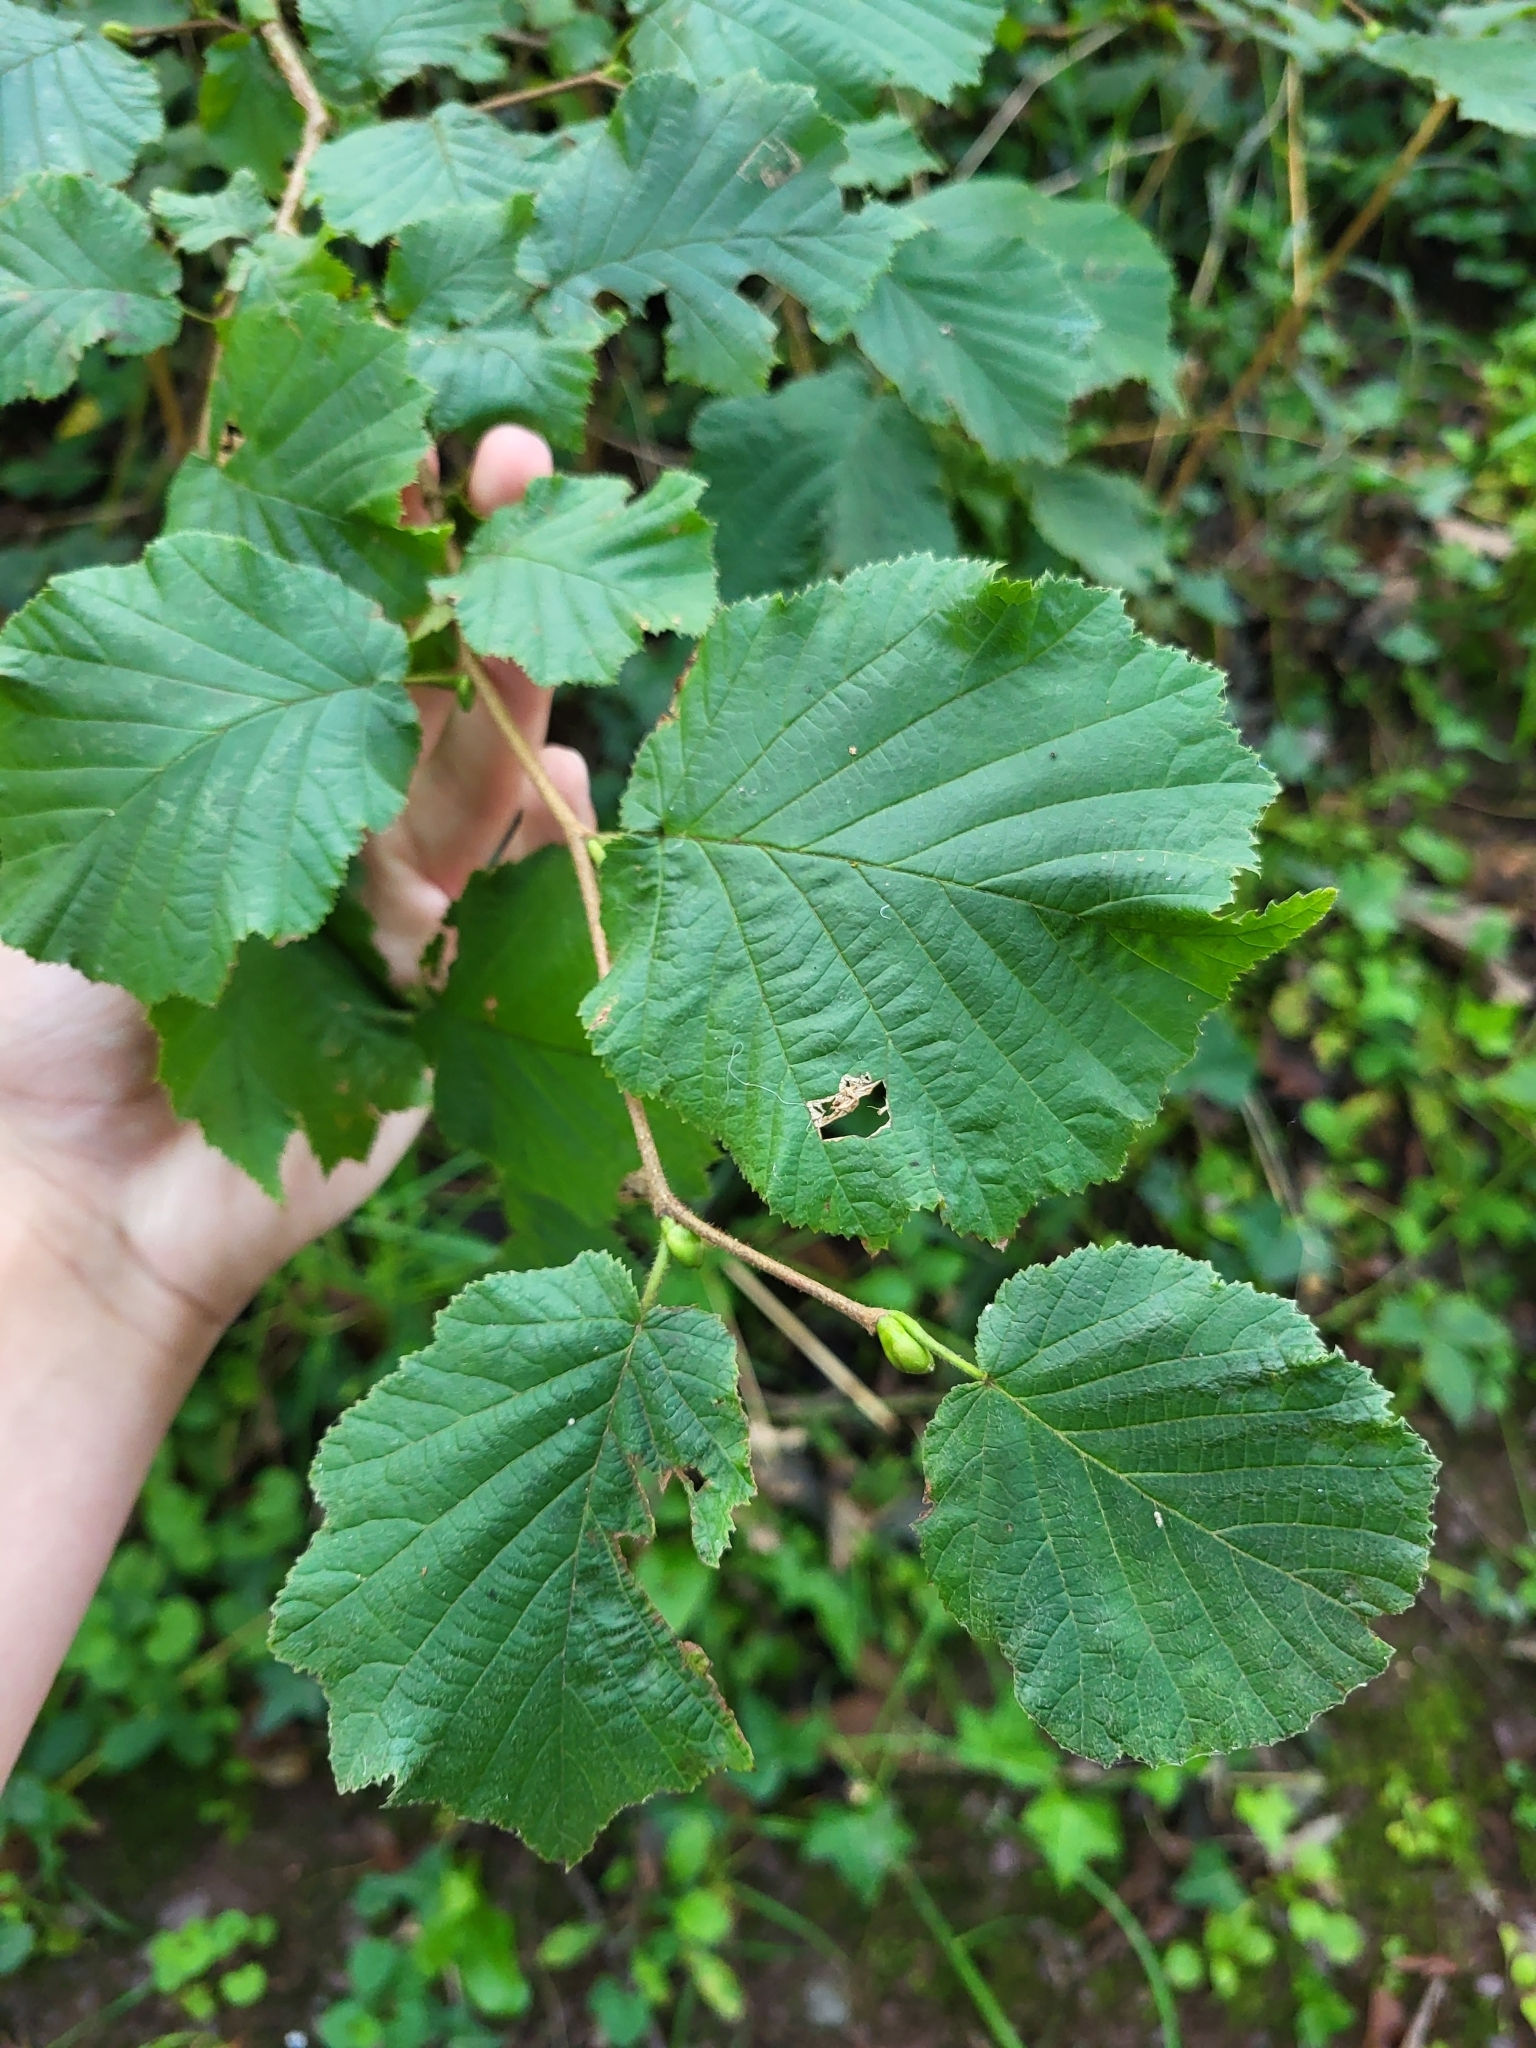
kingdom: Plantae
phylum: Tracheophyta
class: Magnoliopsida
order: Fagales
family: Betulaceae
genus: Corylus
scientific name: Corylus avellana
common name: European hazel
